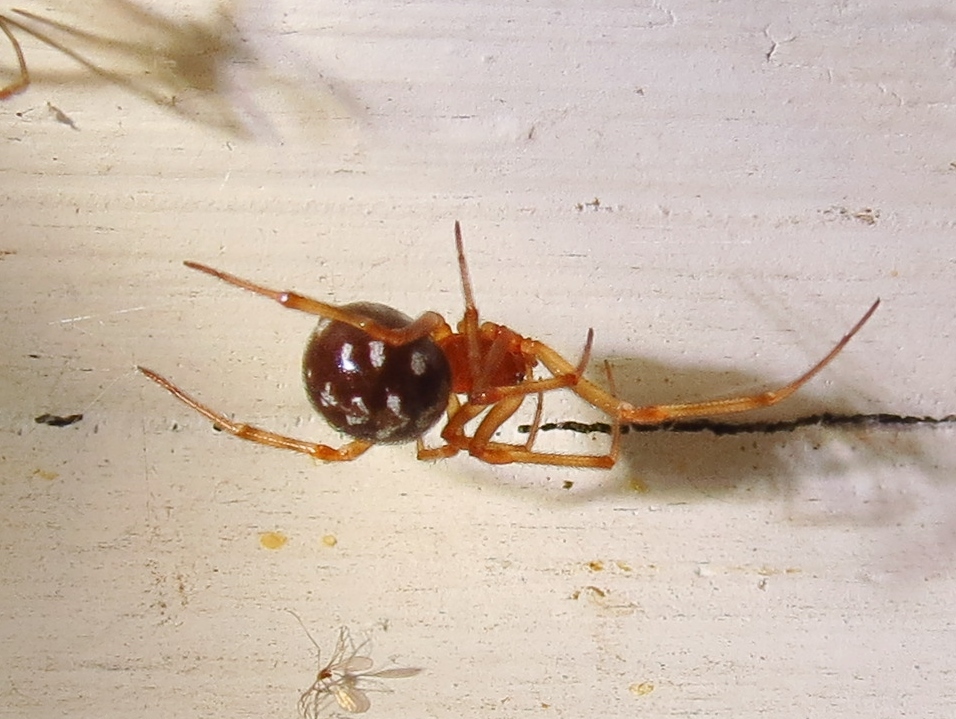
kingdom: Animalia
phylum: Arthropoda
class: Arachnida
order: Araneae
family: Theridiidae
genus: Steatoda
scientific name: Steatoda triangulosa
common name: Triangulate bud spider
